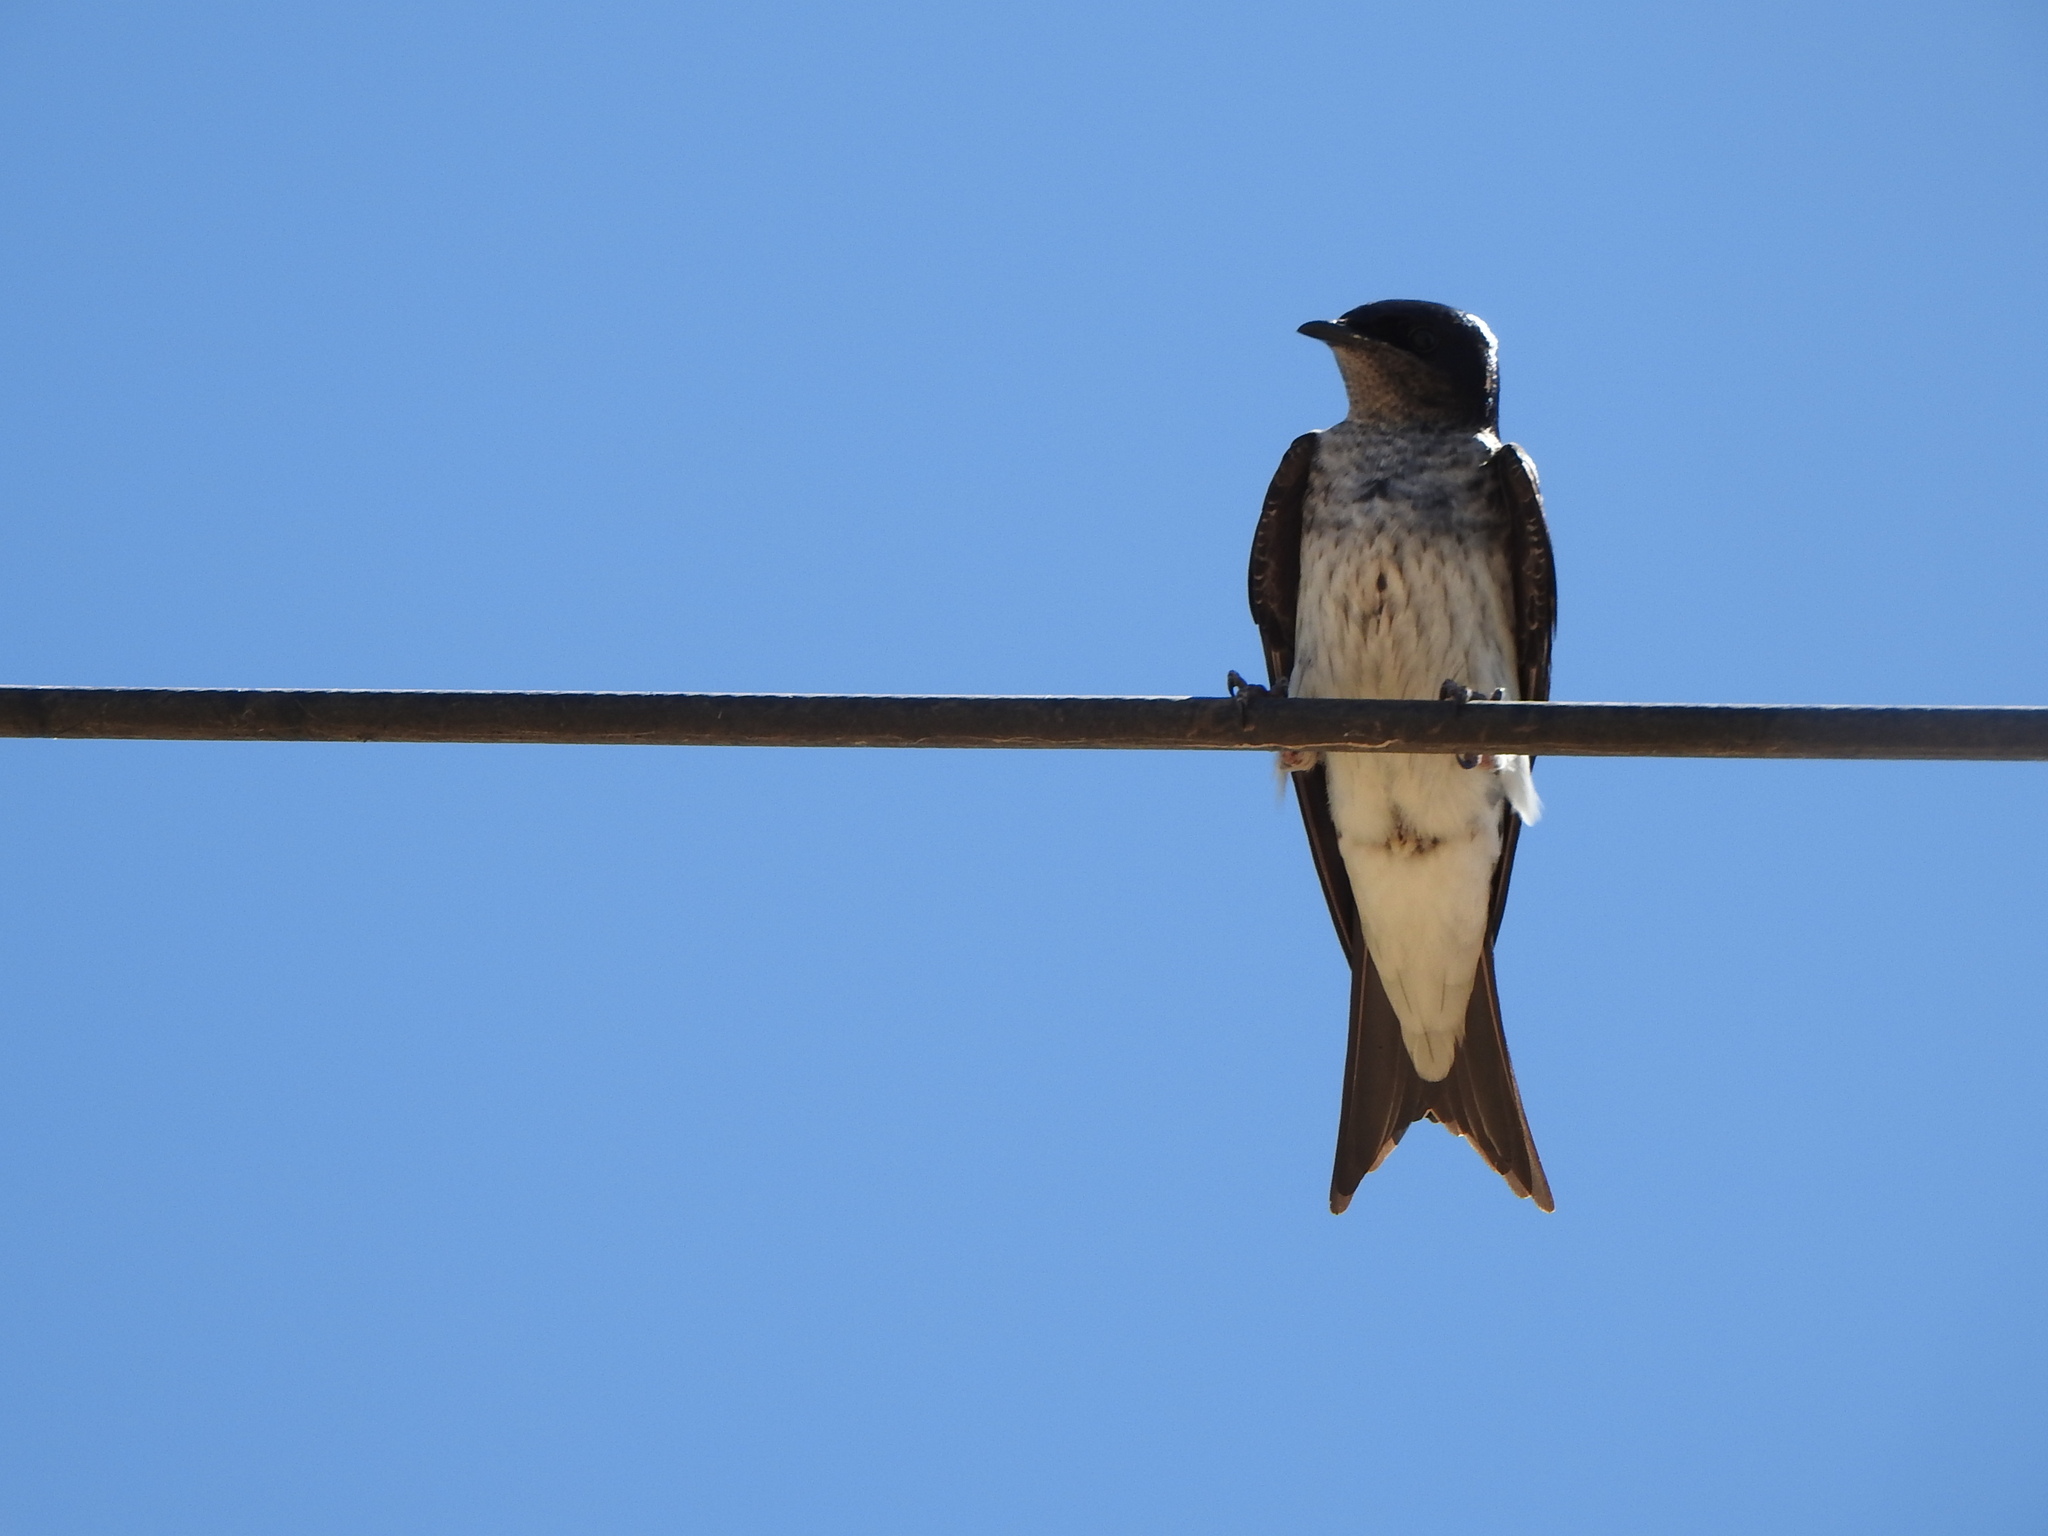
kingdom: Animalia
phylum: Chordata
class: Aves
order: Passeriformes
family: Hirundinidae
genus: Progne
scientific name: Progne chalybea
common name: Grey-breasted martin
